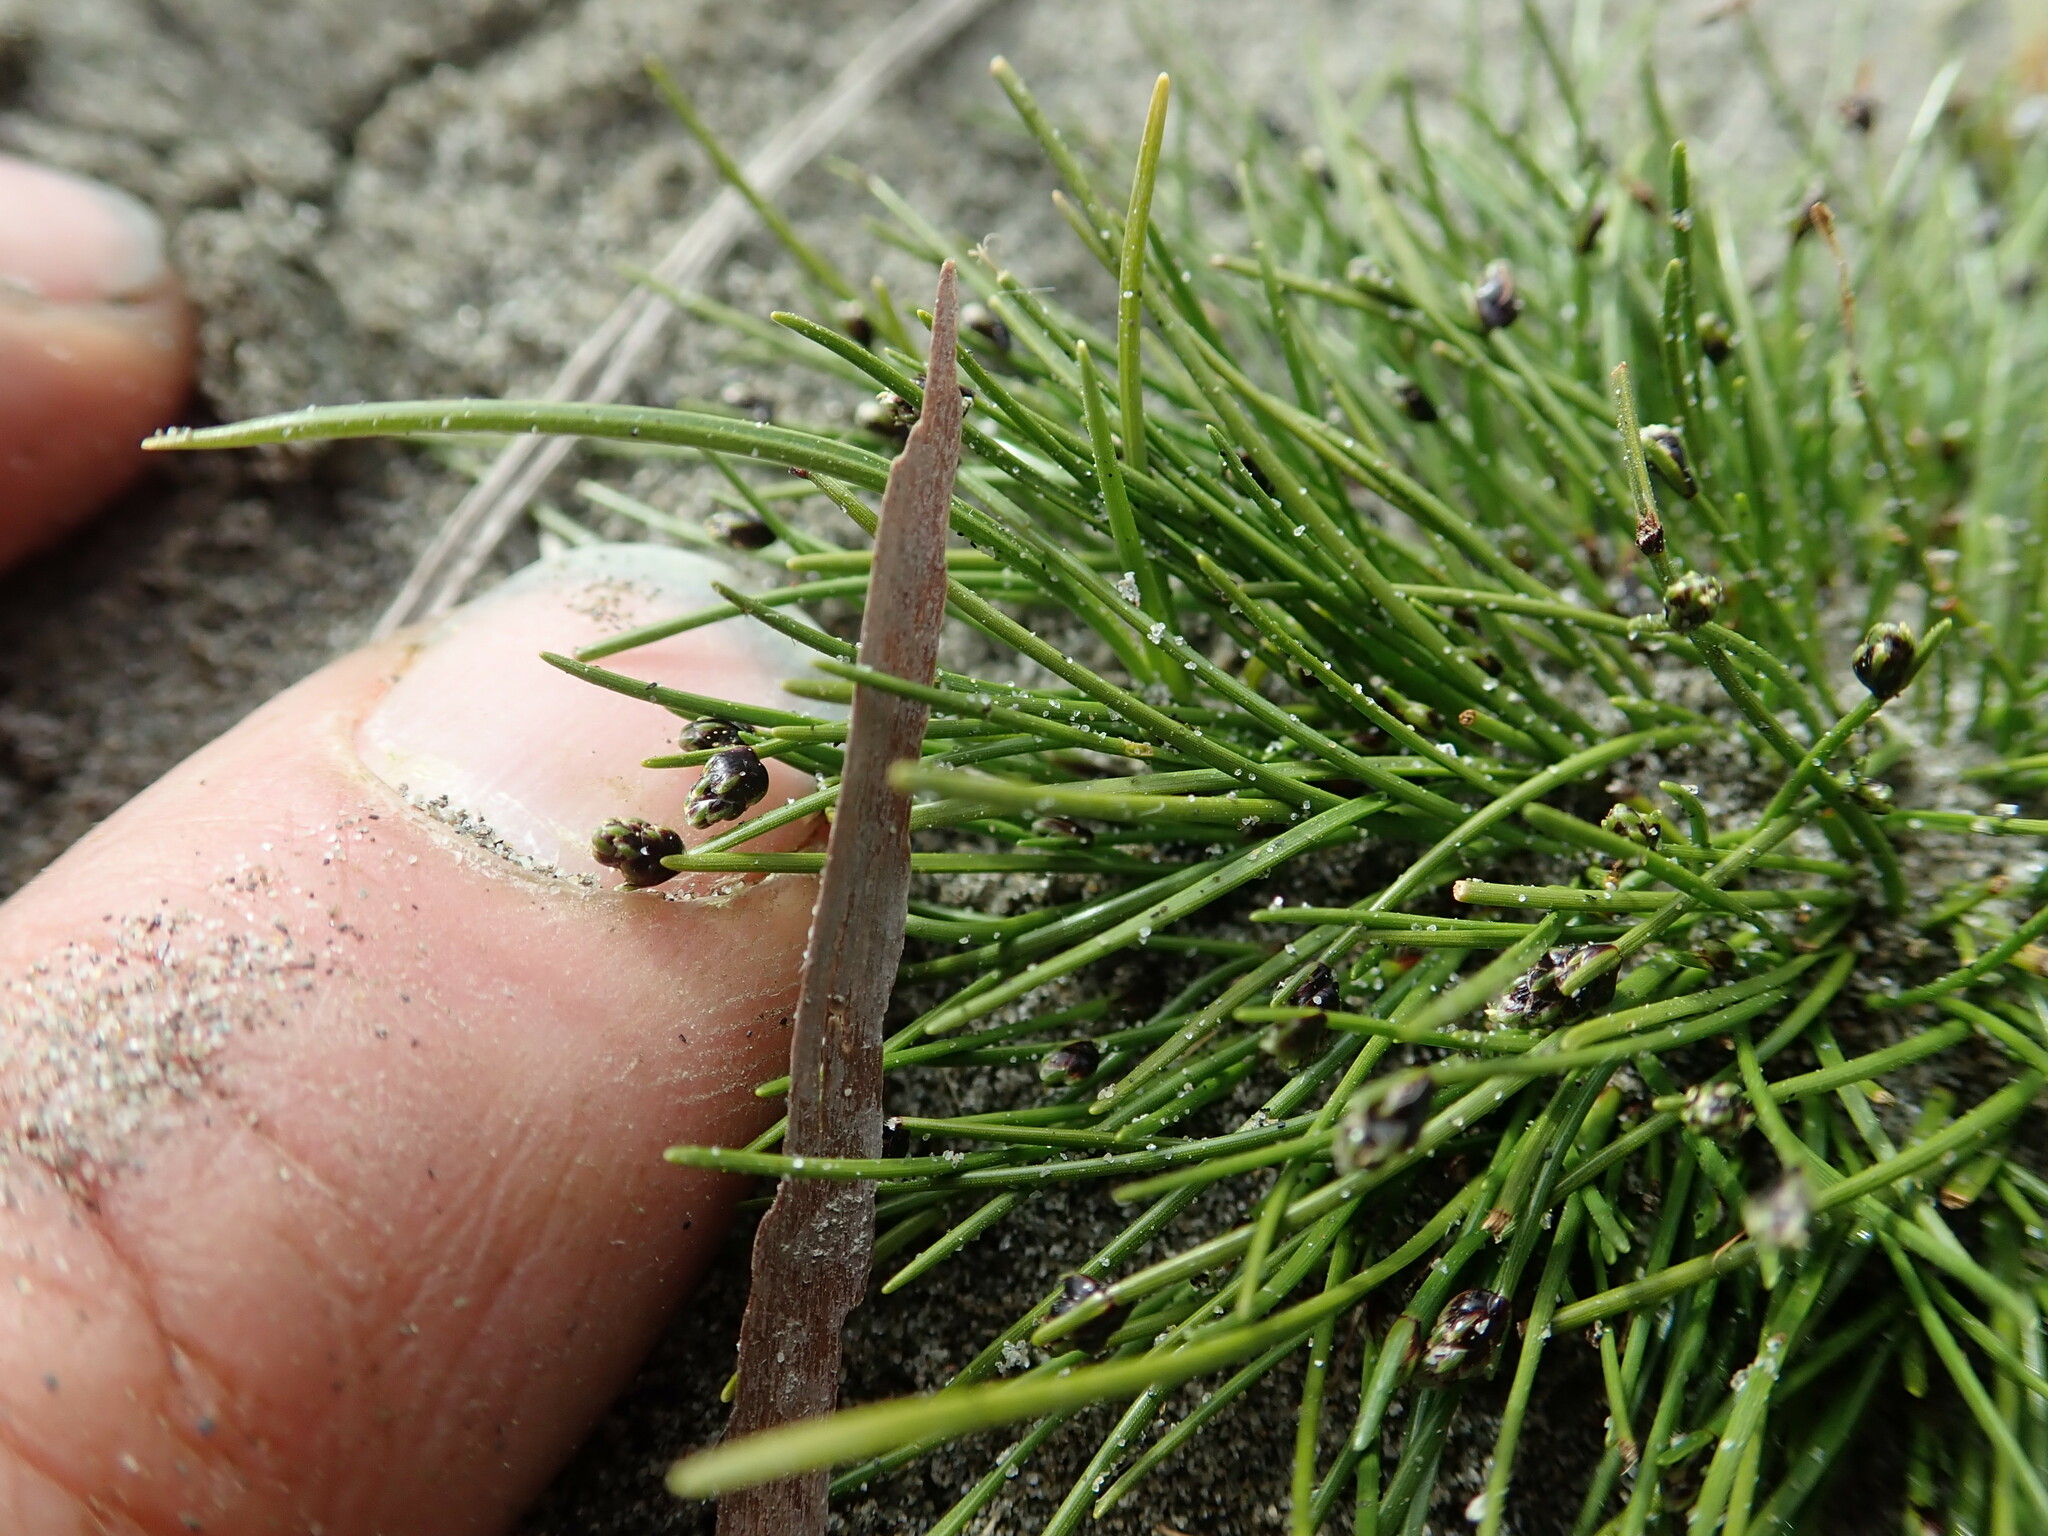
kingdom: Plantae
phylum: Tracheophyta
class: Liliopsida
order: Poales
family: Cyperaceae
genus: Isolepis
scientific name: Isolepis cernua
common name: Slender club-rush
